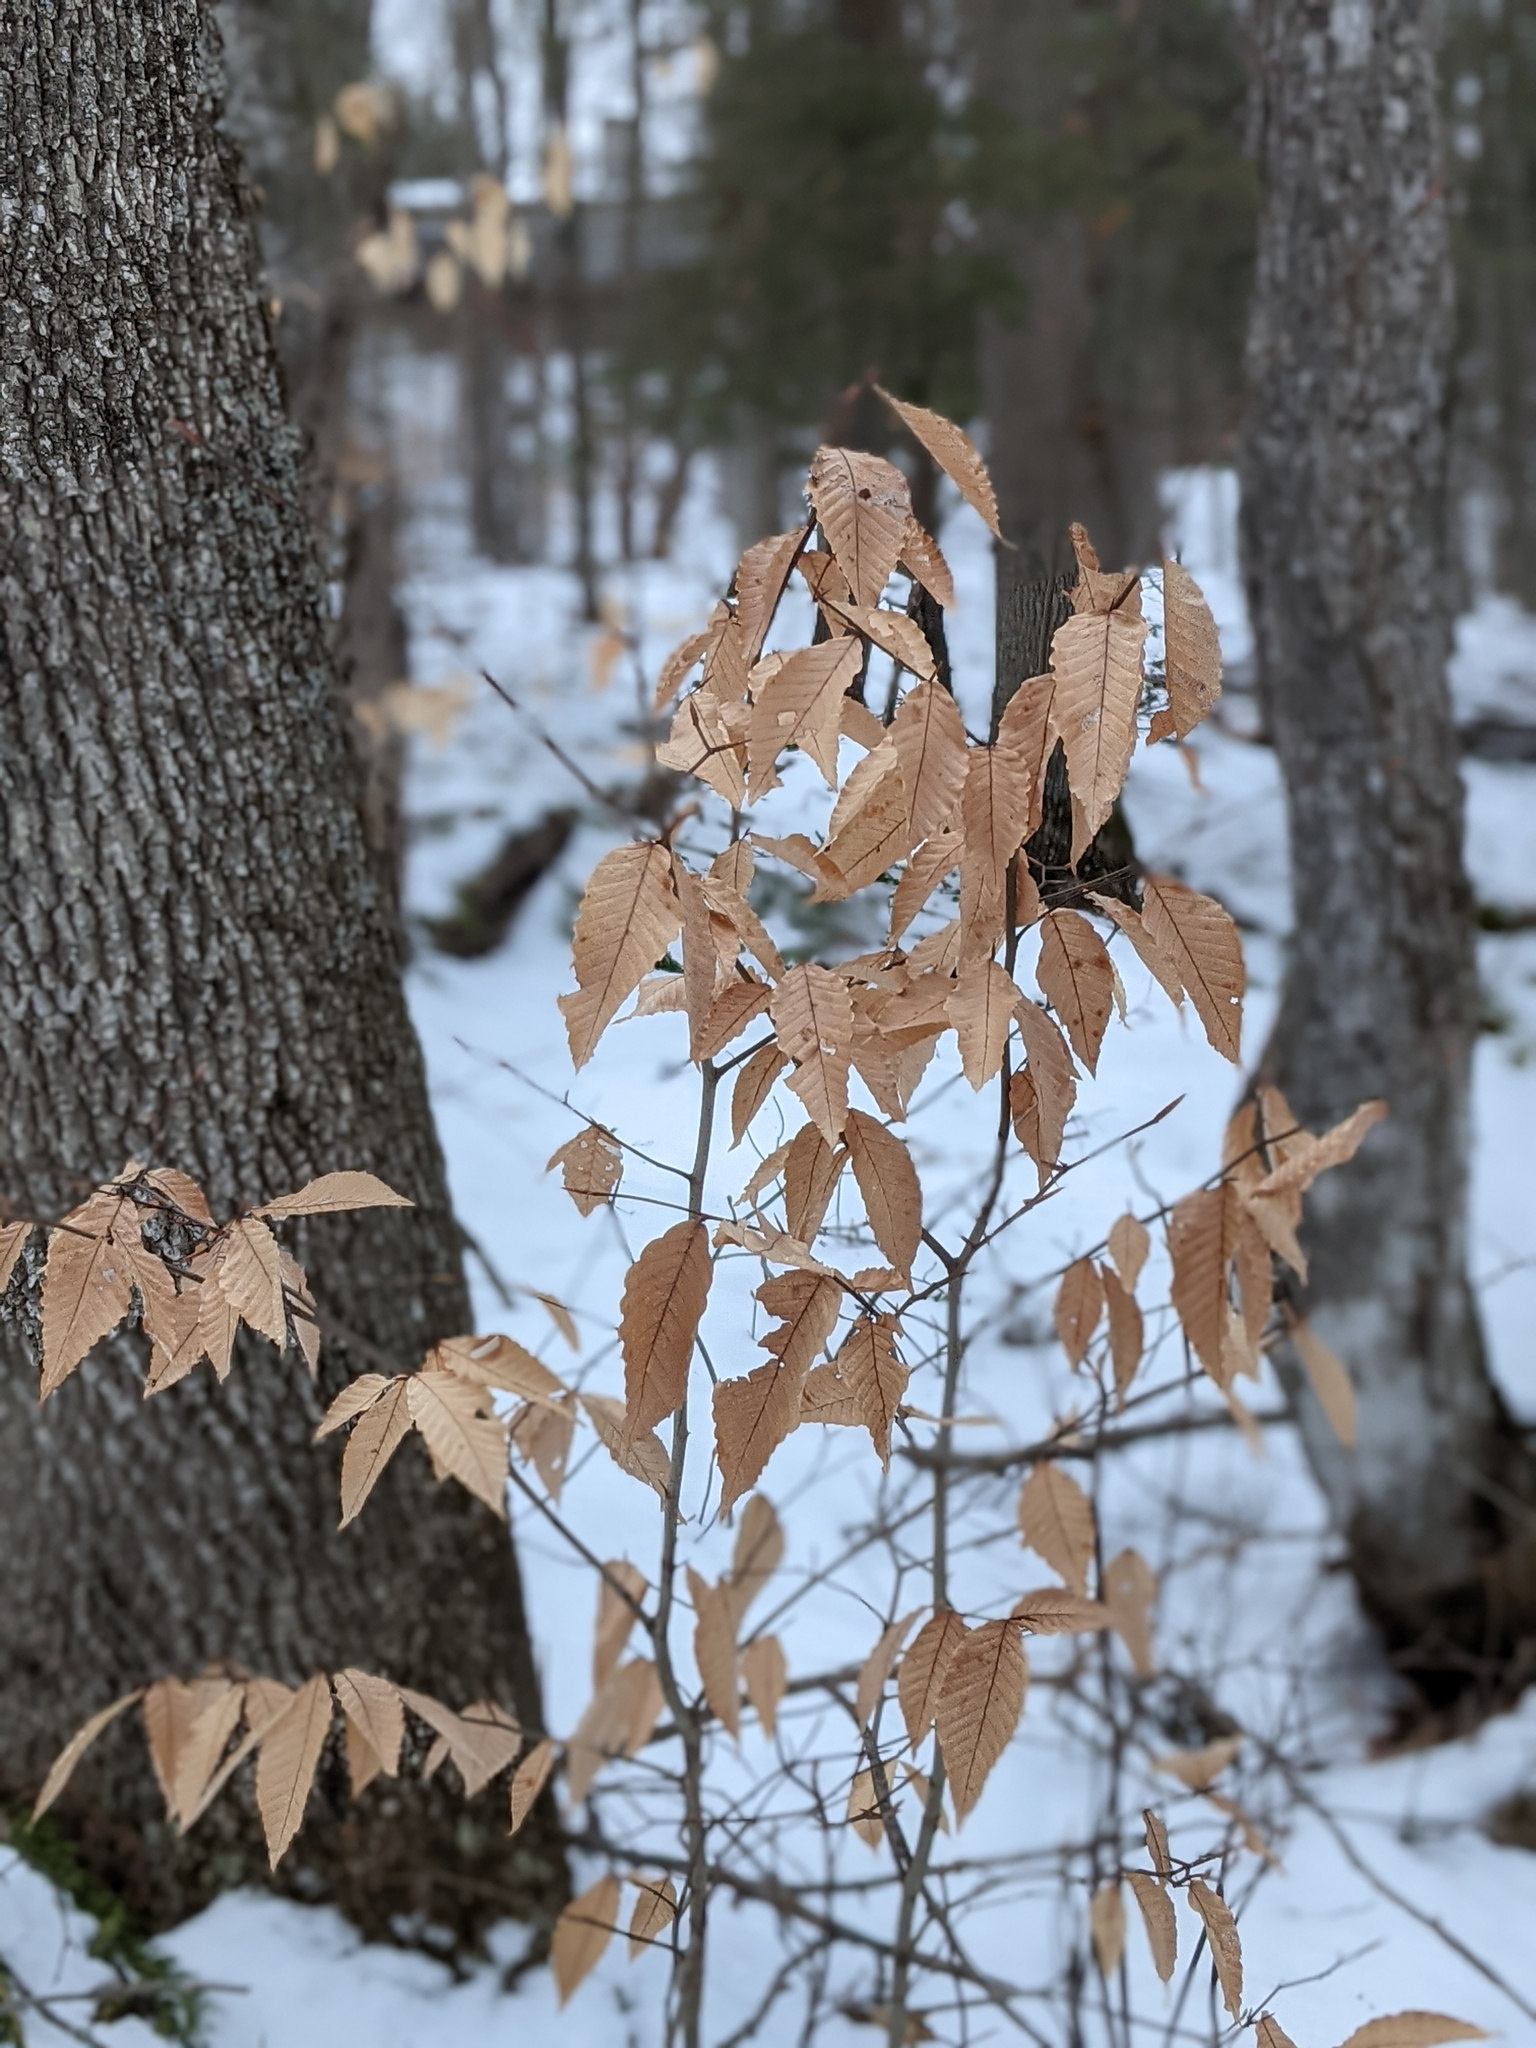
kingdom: Plantae
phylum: Tracheophyta
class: Magnoliopsida
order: Fagales
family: Fagaceae
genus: Fagus
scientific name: Fagus grandifolia
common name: American beech
